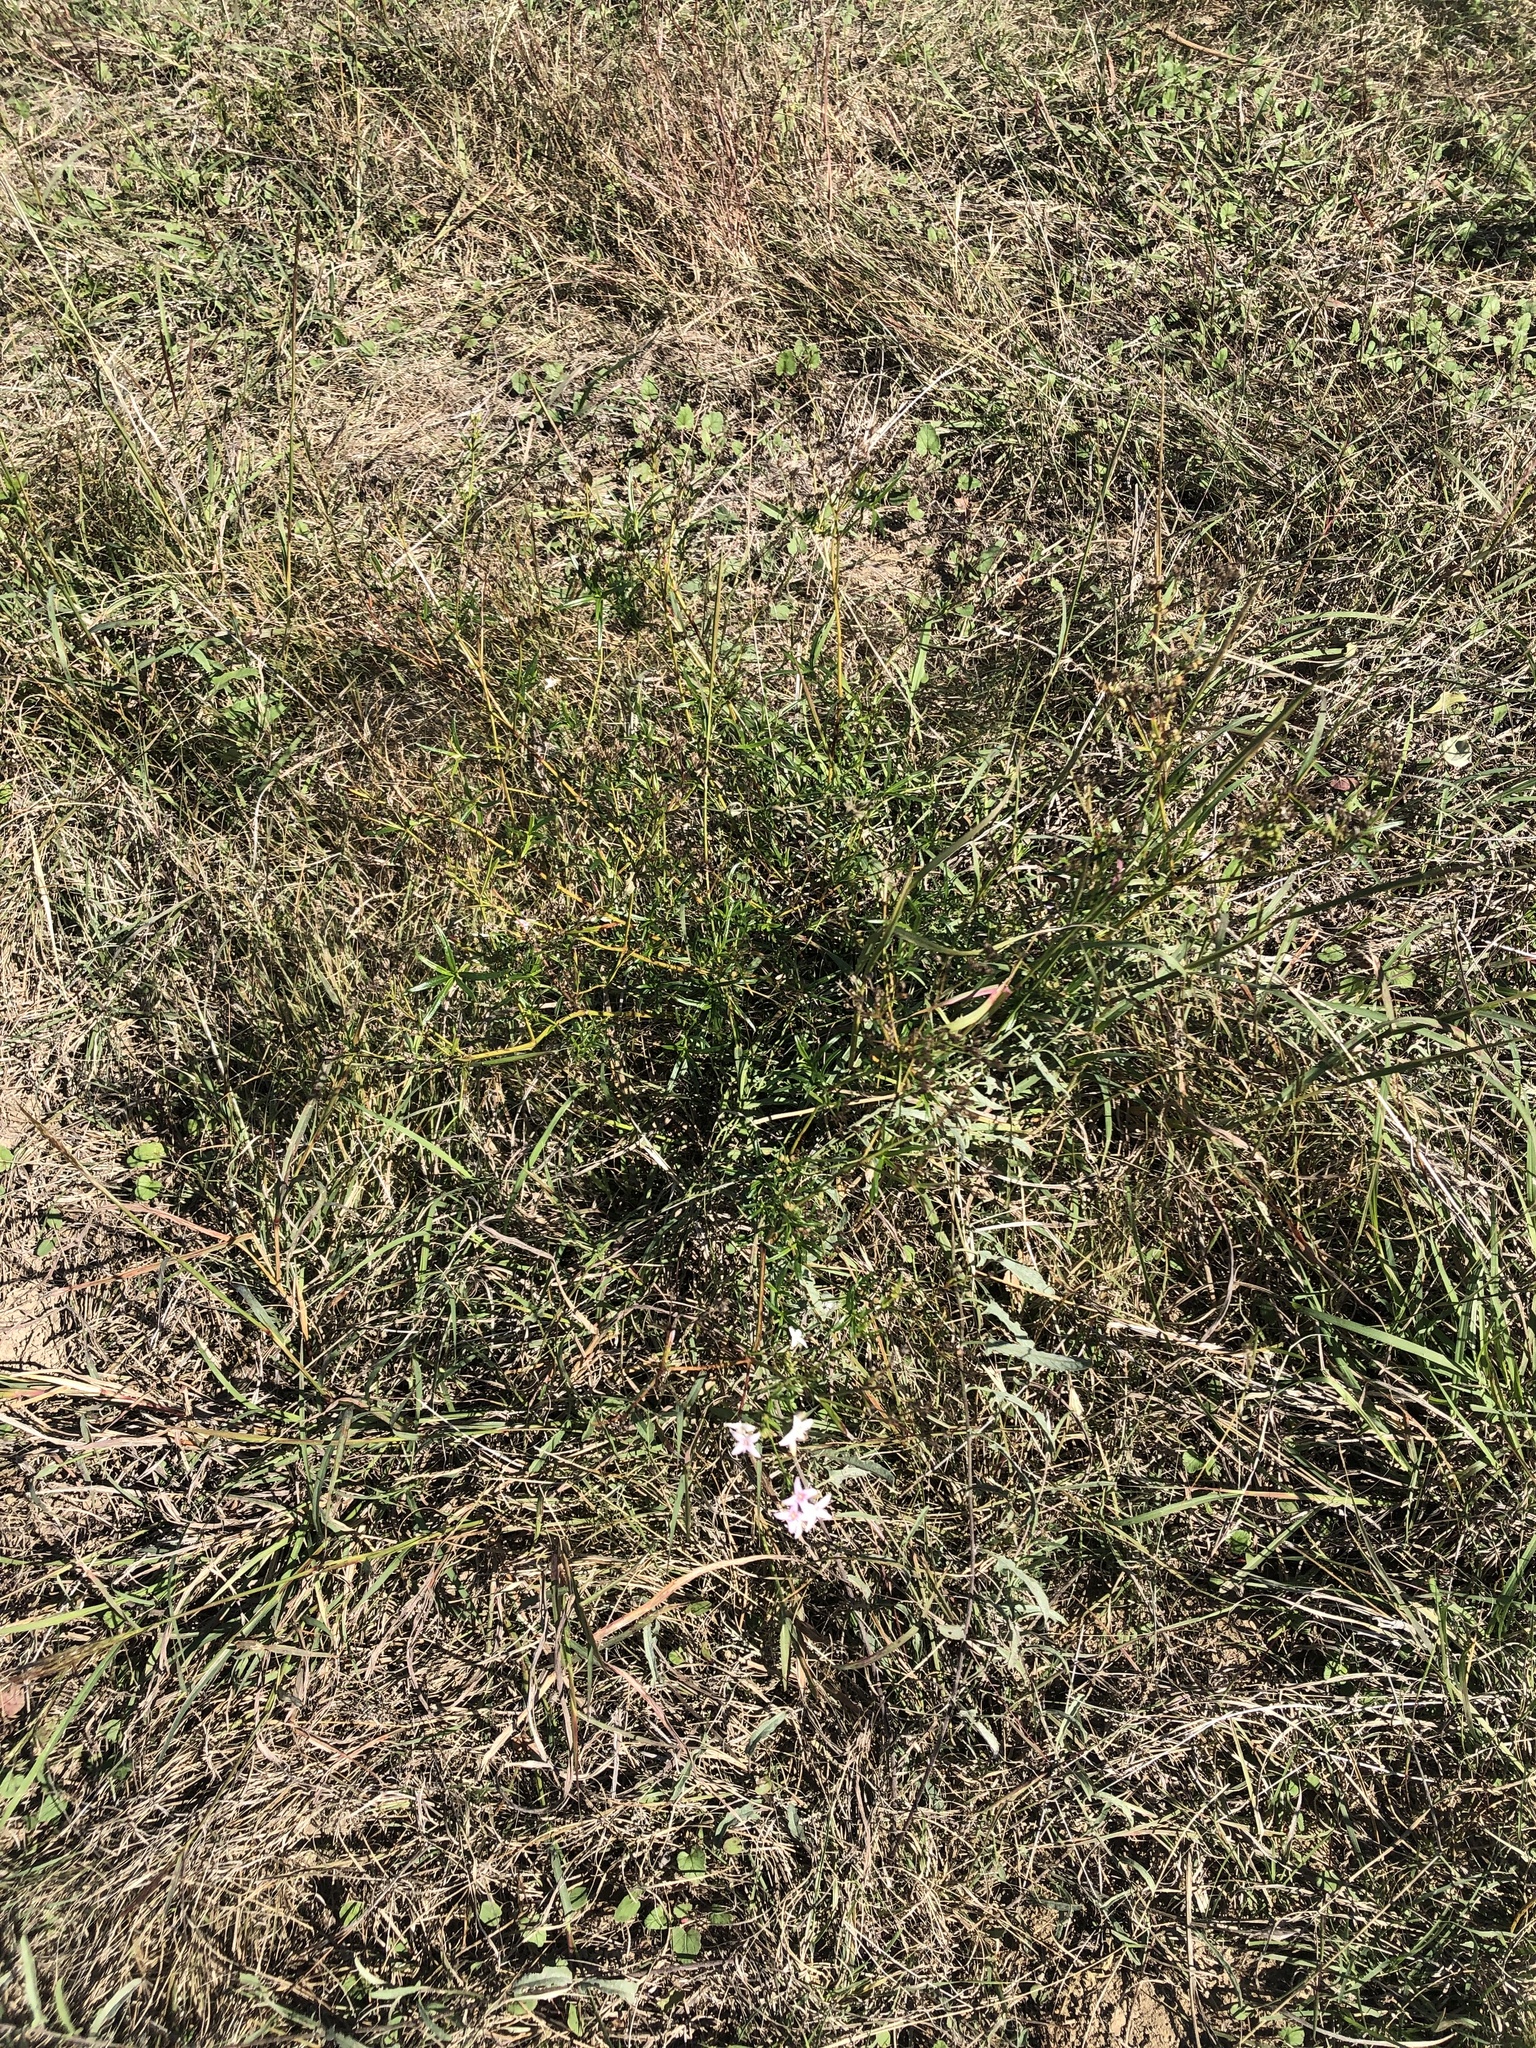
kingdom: Plantae
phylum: Tracheophyta
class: Magnoliopsida
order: Gentianales
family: Rubiaceae
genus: Stenaria
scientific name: Stenaria nigricans
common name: Diamondflowers
